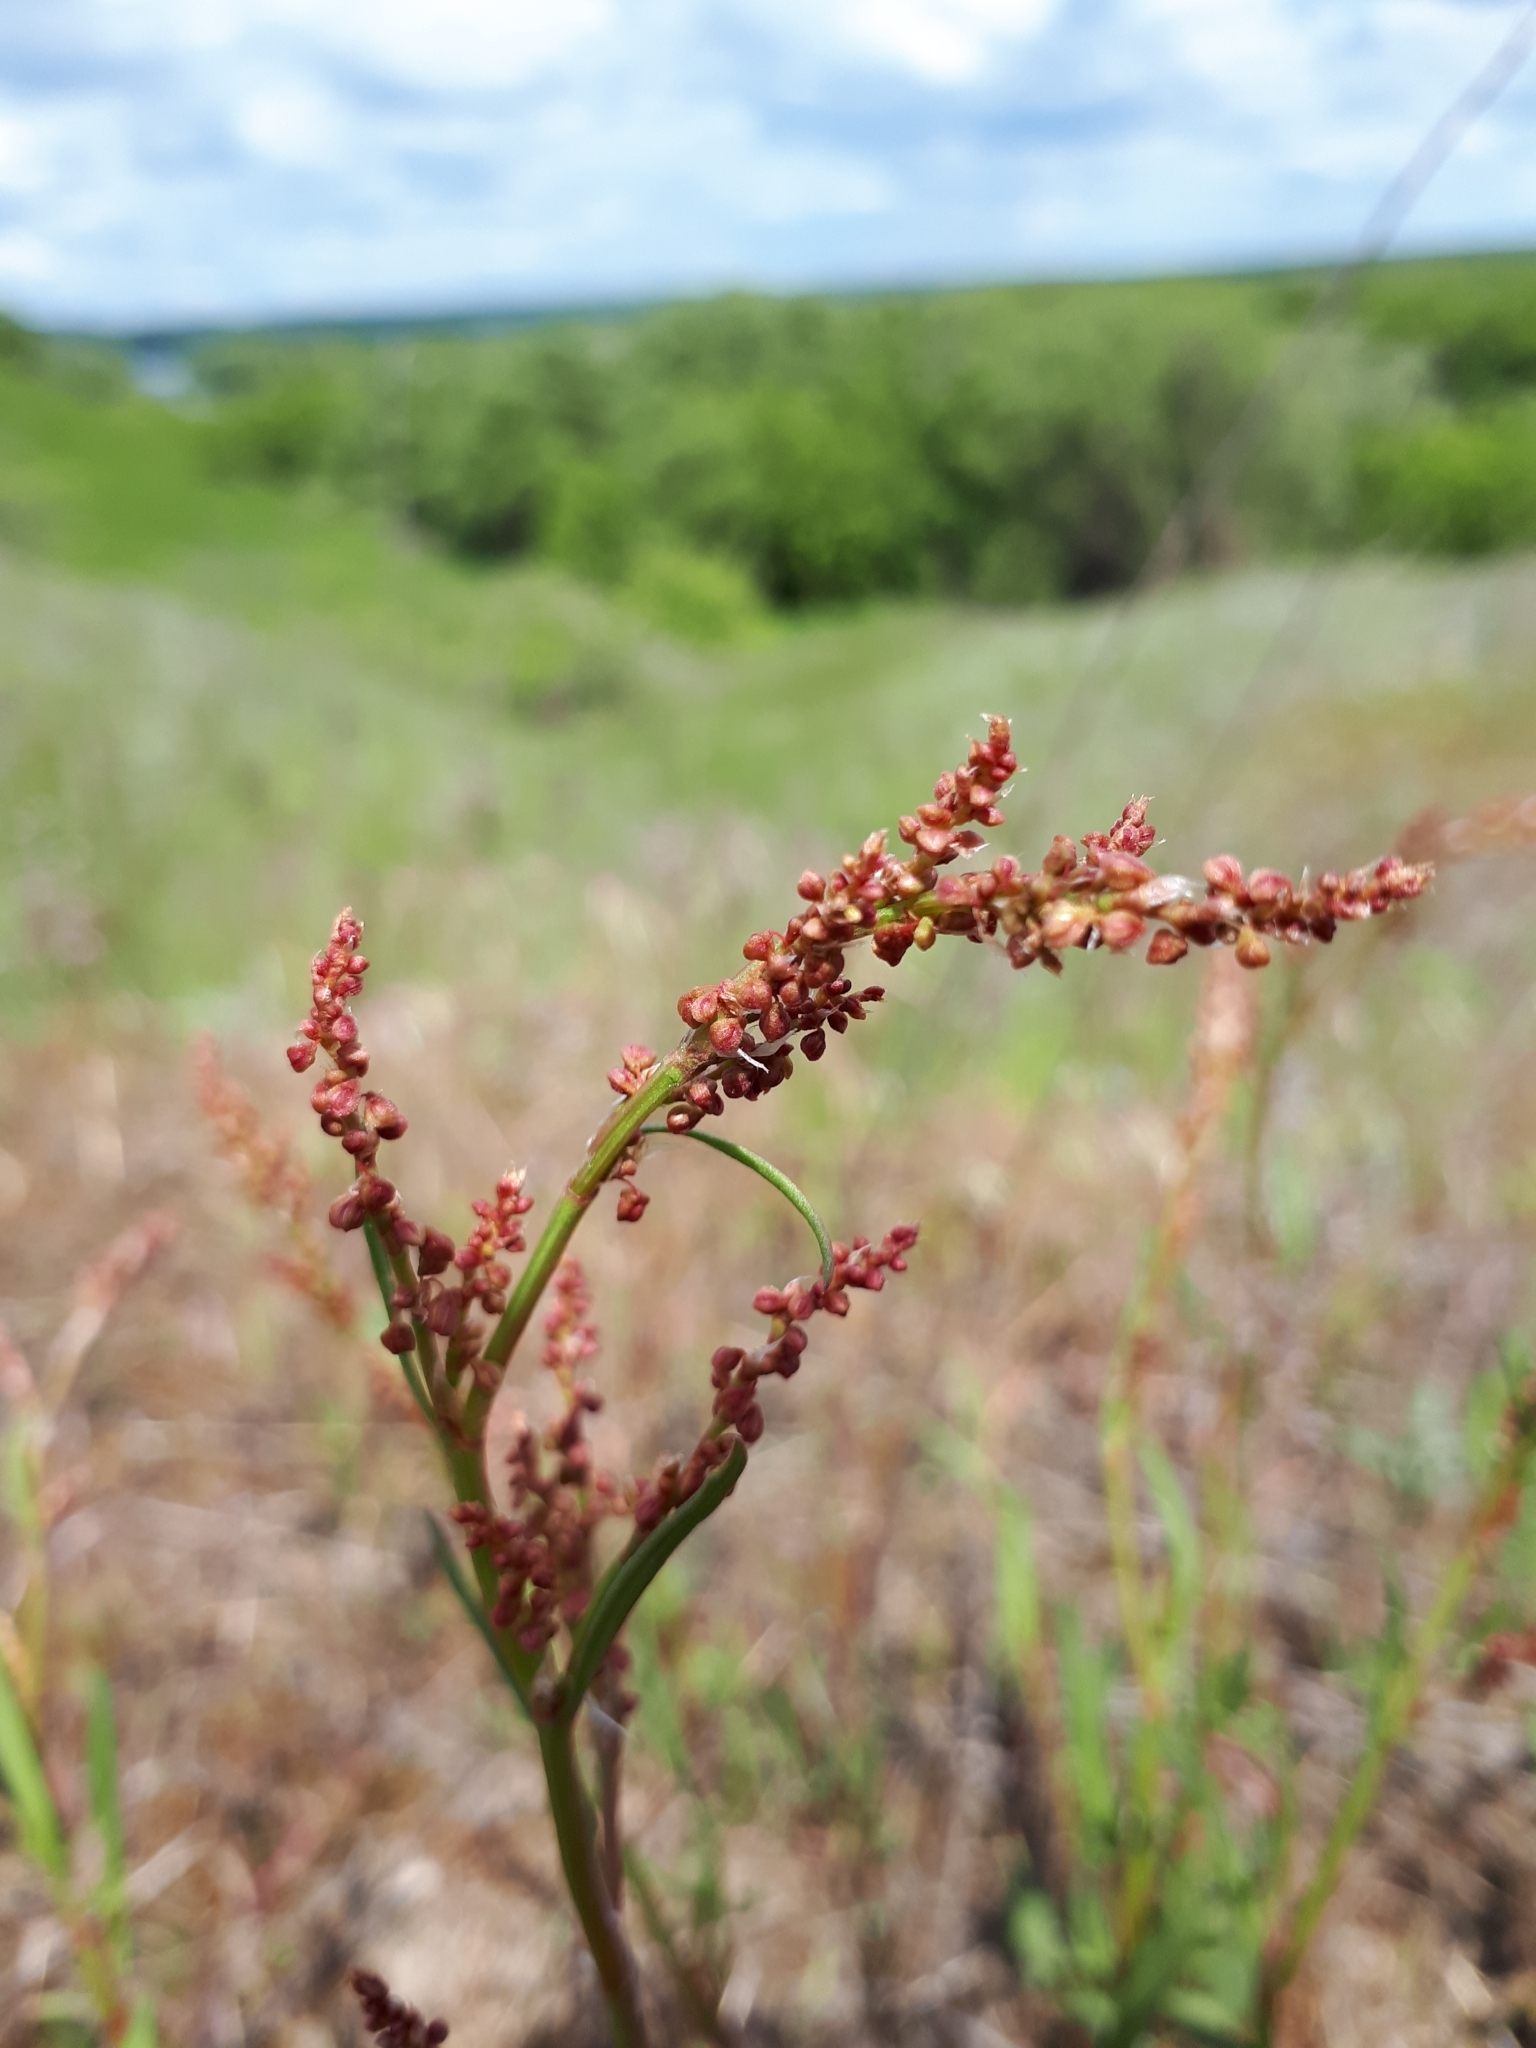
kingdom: Plantae
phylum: Tracheophyta
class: Magnoliopsida
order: Caryophyllales
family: Polygonaceae
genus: Rumex
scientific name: Rumex acetosella
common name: Common sheep sorrel
